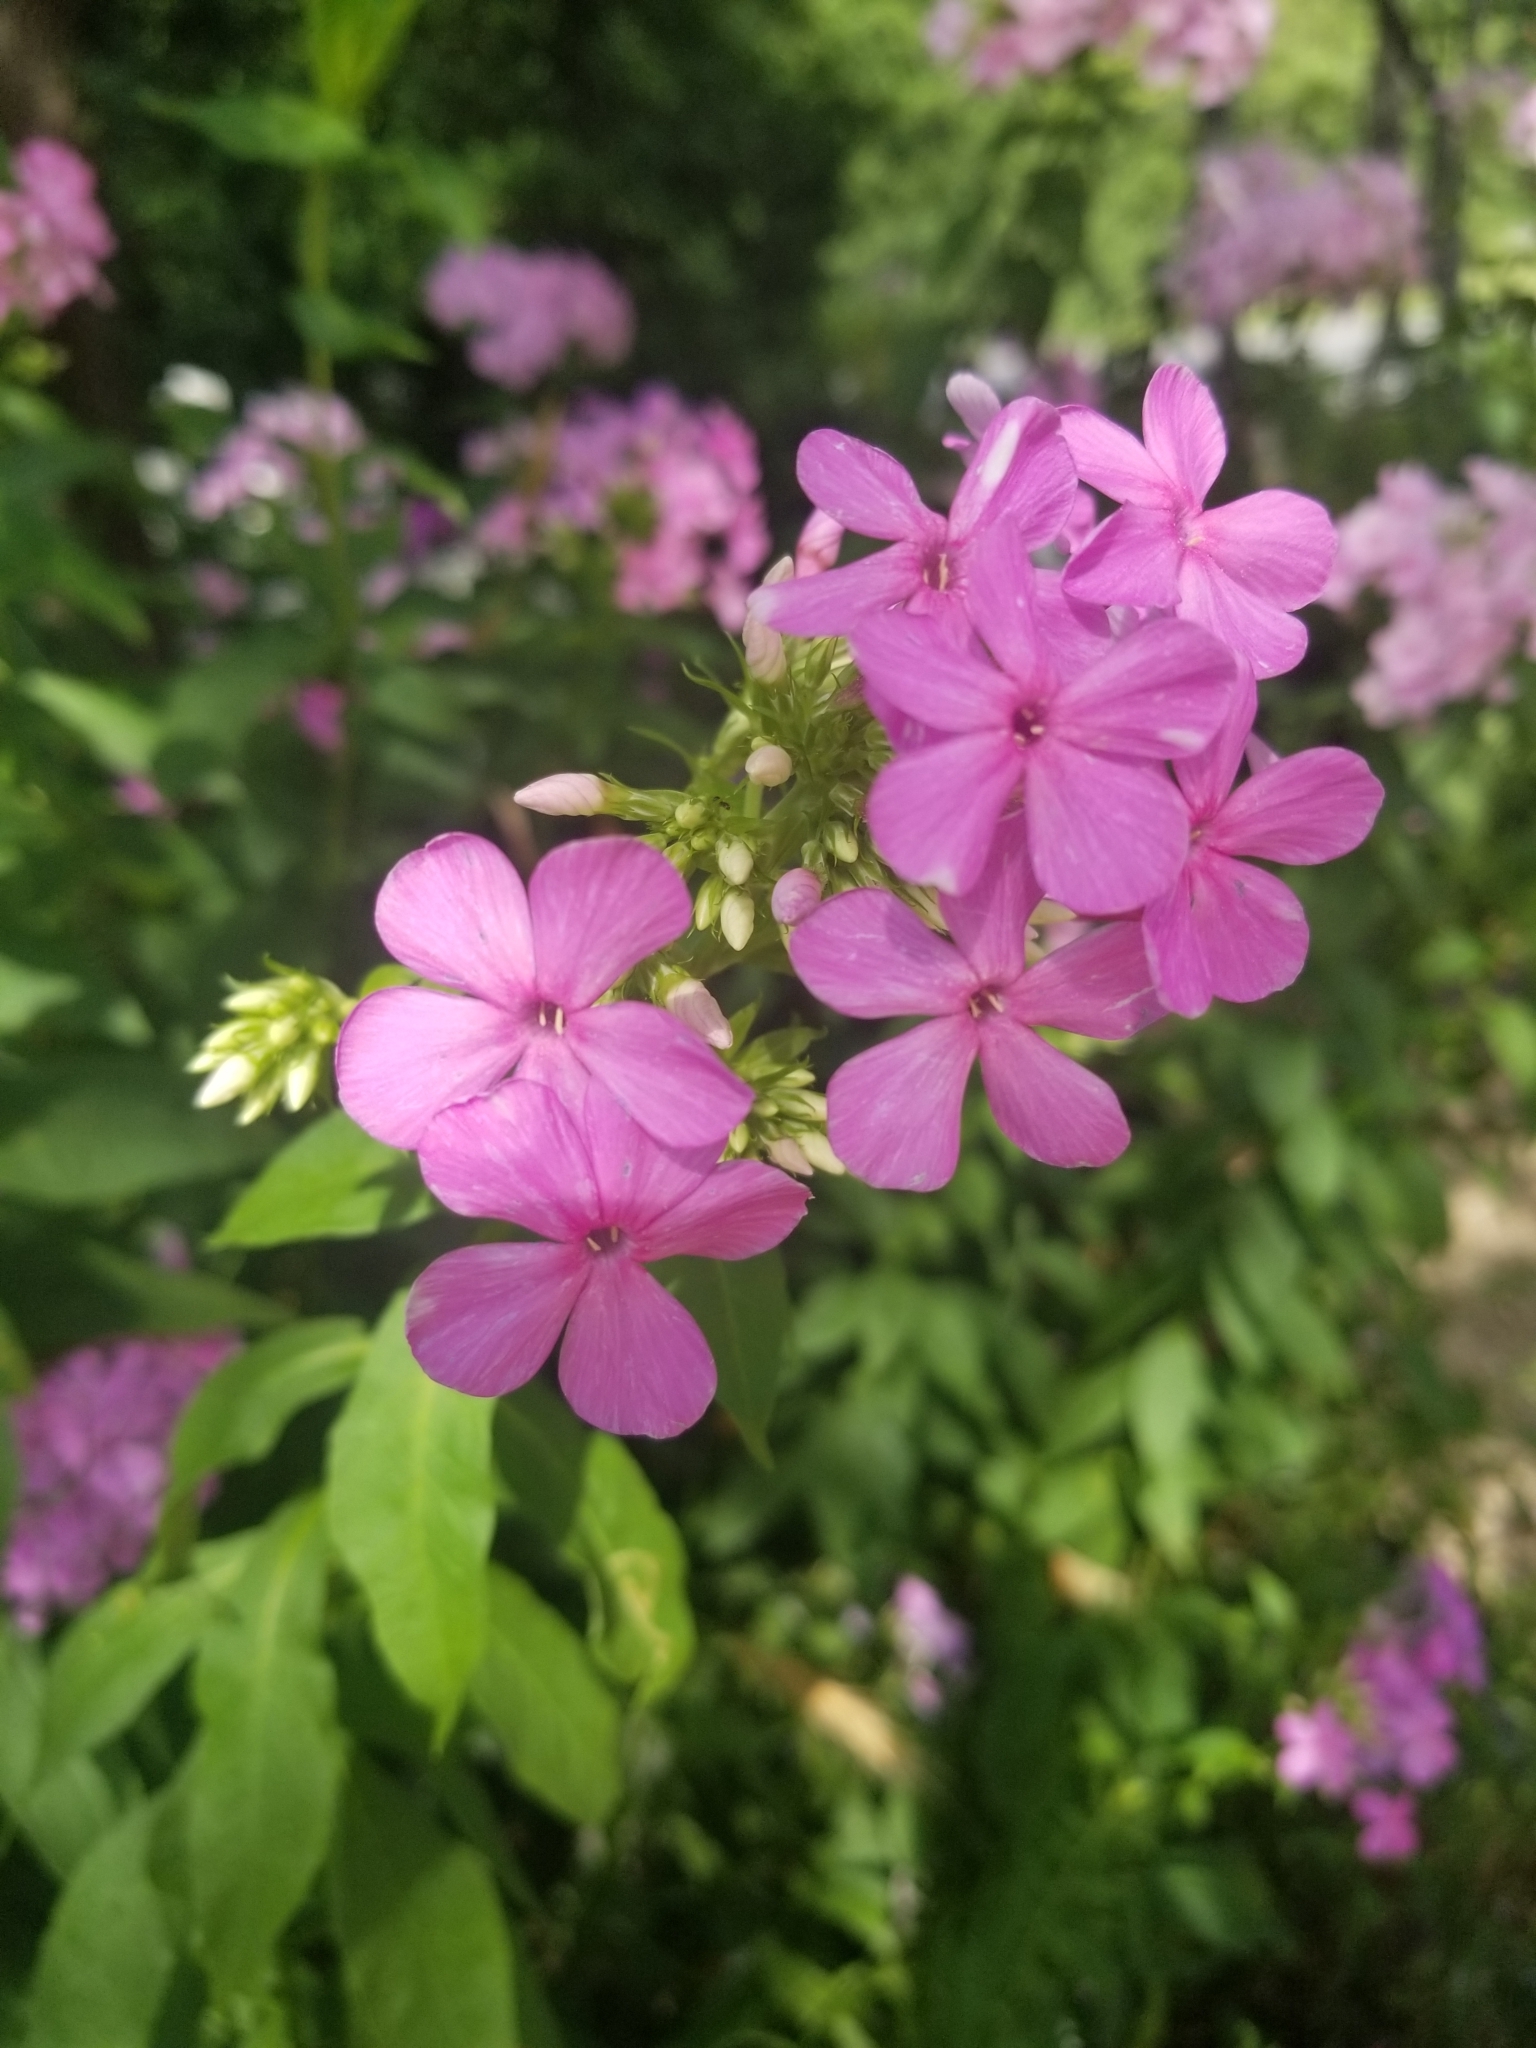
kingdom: Plantae
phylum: Tracheophyta
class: Magnoliopsida
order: Ericales
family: Polemoniaceae
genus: Phlox
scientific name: Phlox paniculata
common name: Fall phlox
